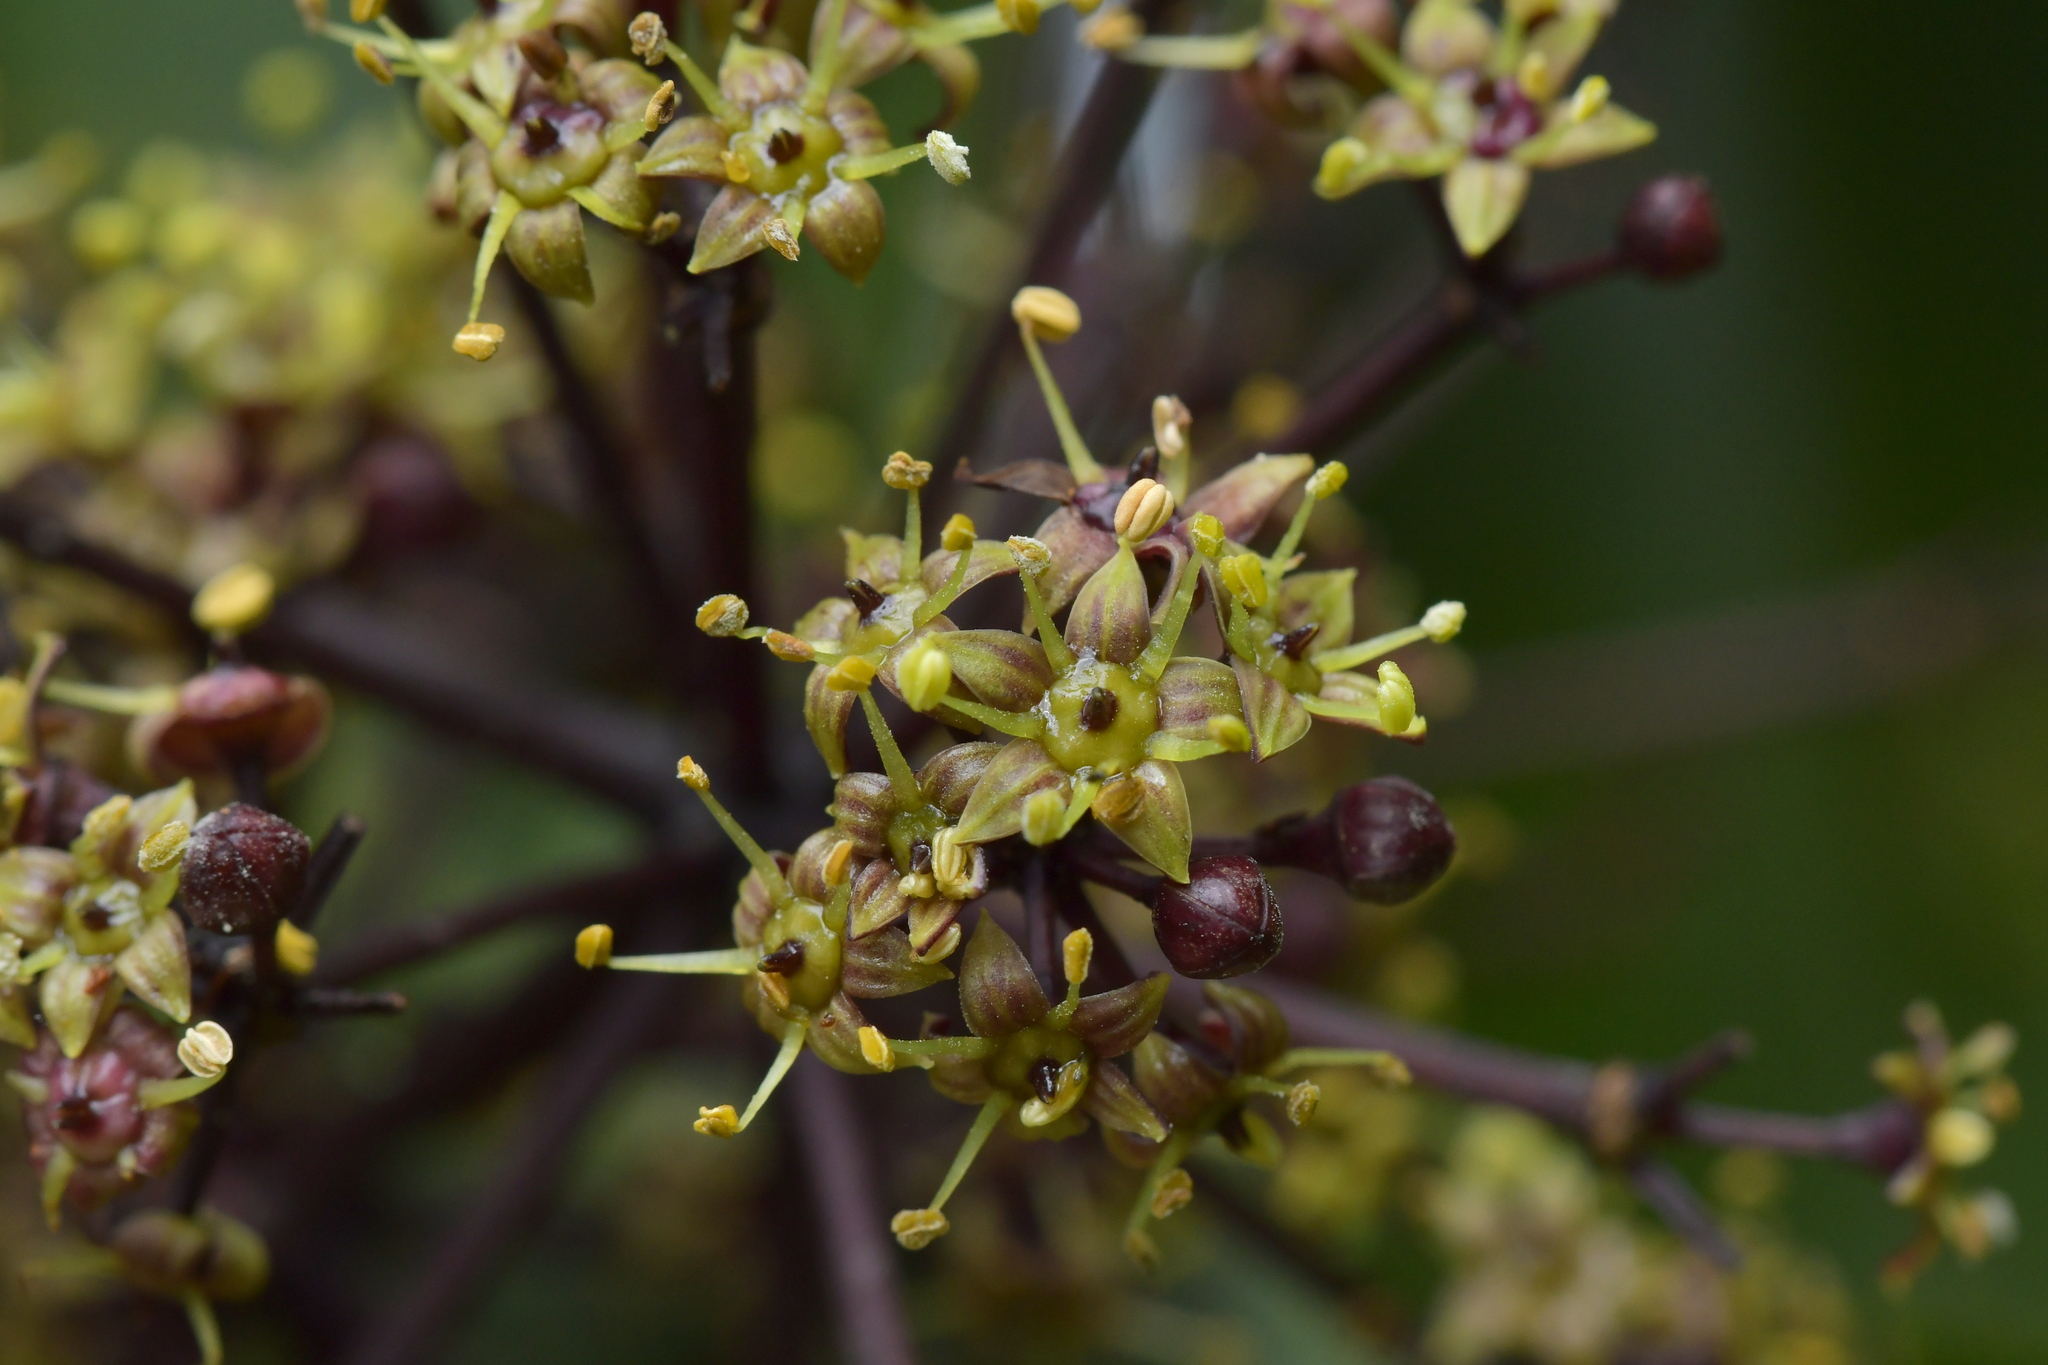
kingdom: Plantae
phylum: Tracheophyta
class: Magnoliopsida
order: Apiales
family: Araliaceae
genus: Neopanax
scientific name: Neopanax arboreus
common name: Five-fingers
